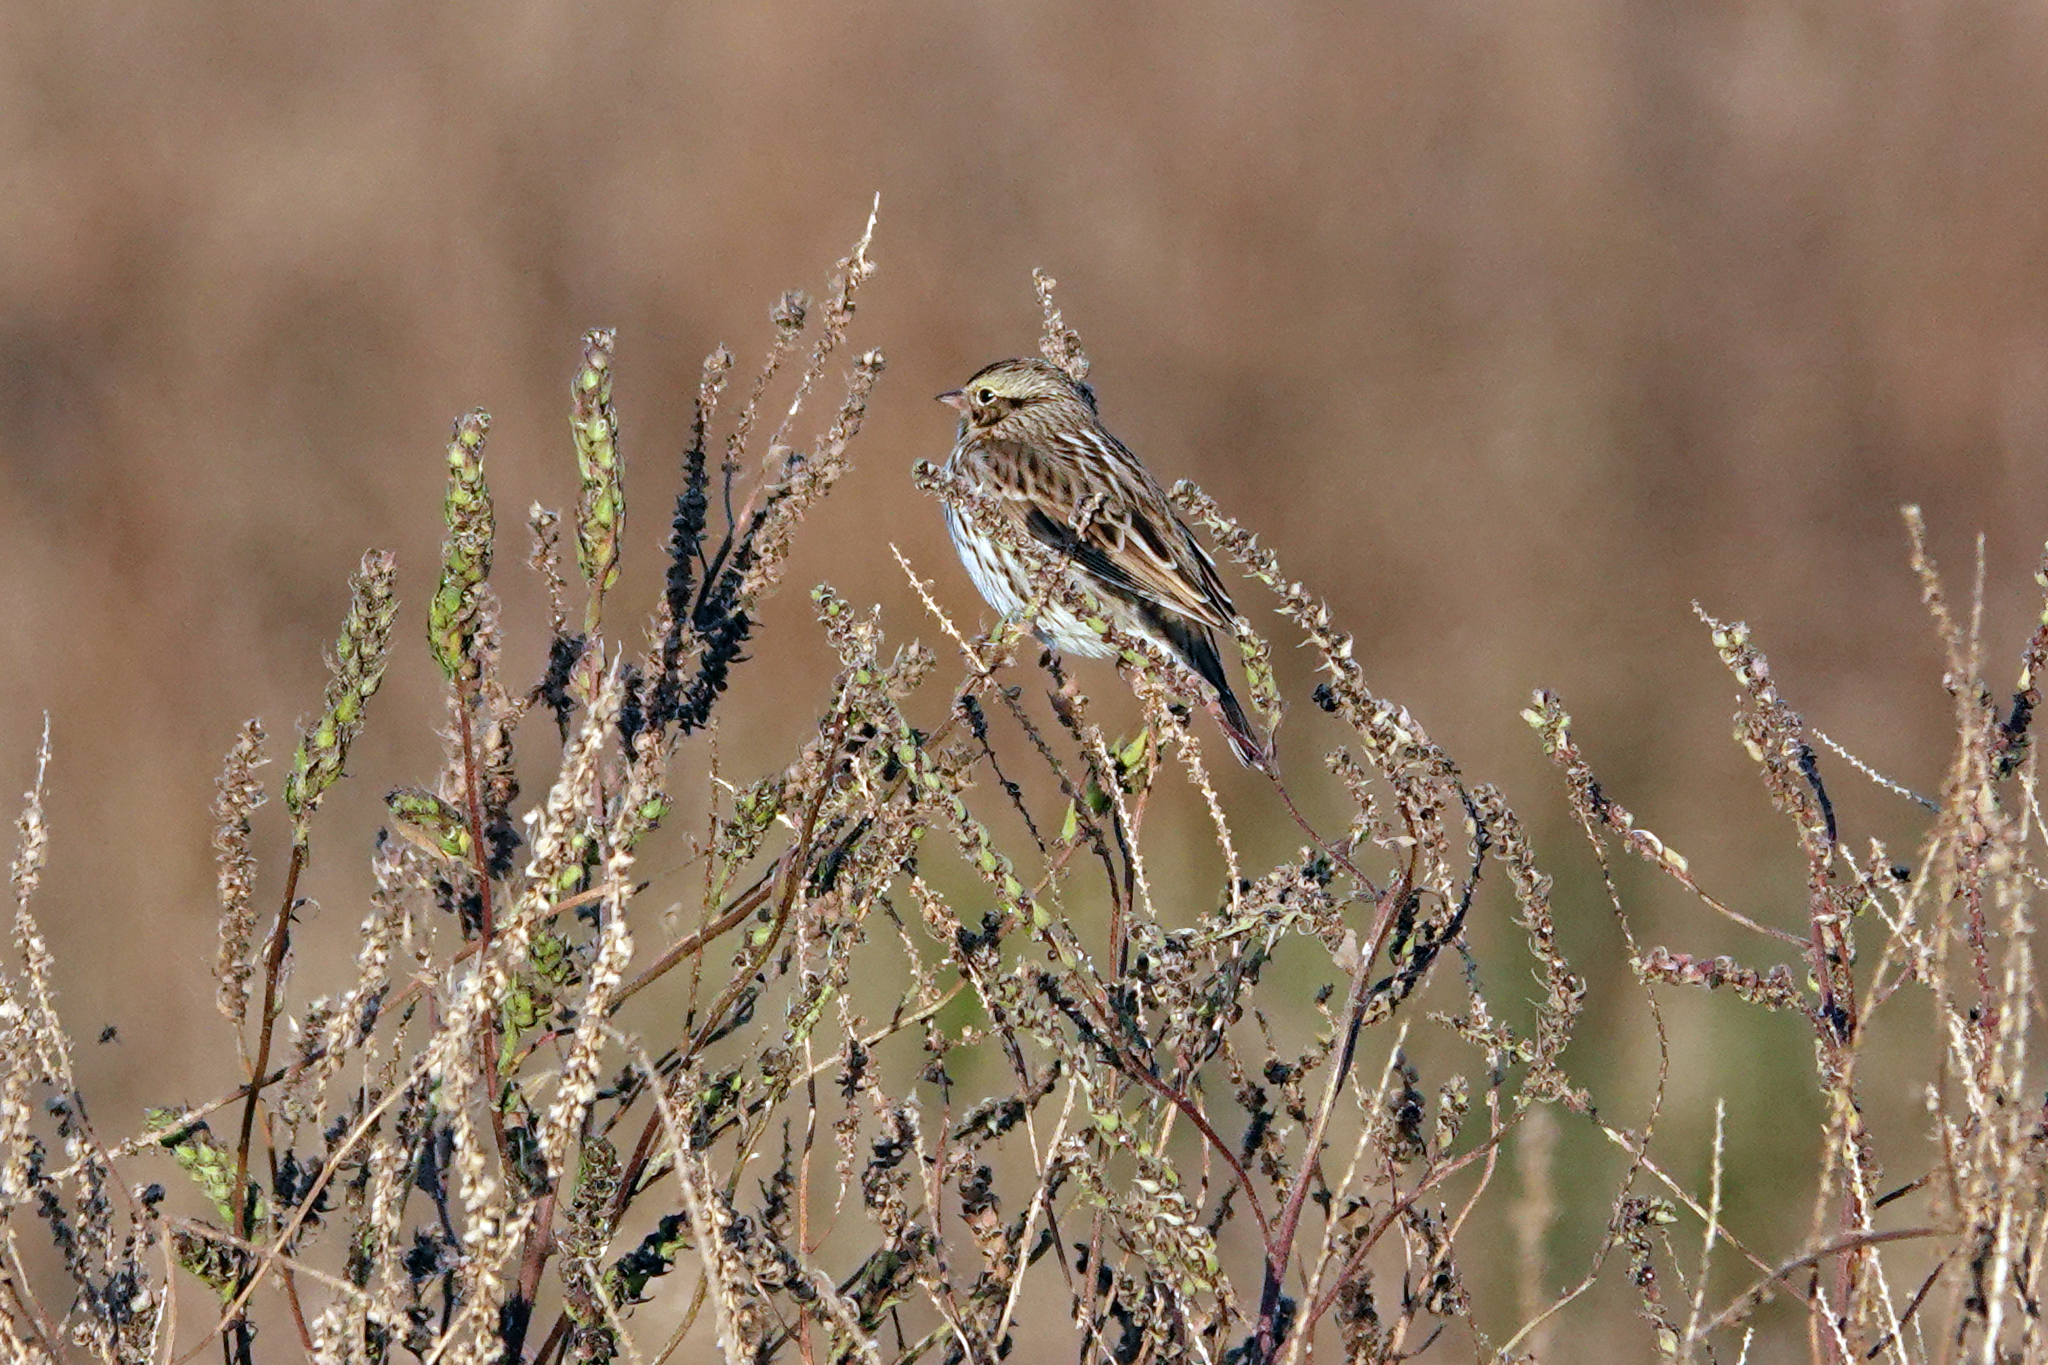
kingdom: Animalia
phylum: Chordata
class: Aves
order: Passeriformes
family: Passerellidae
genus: Passerculus
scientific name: Passerculus sandwichensis
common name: Savannah sparrow
